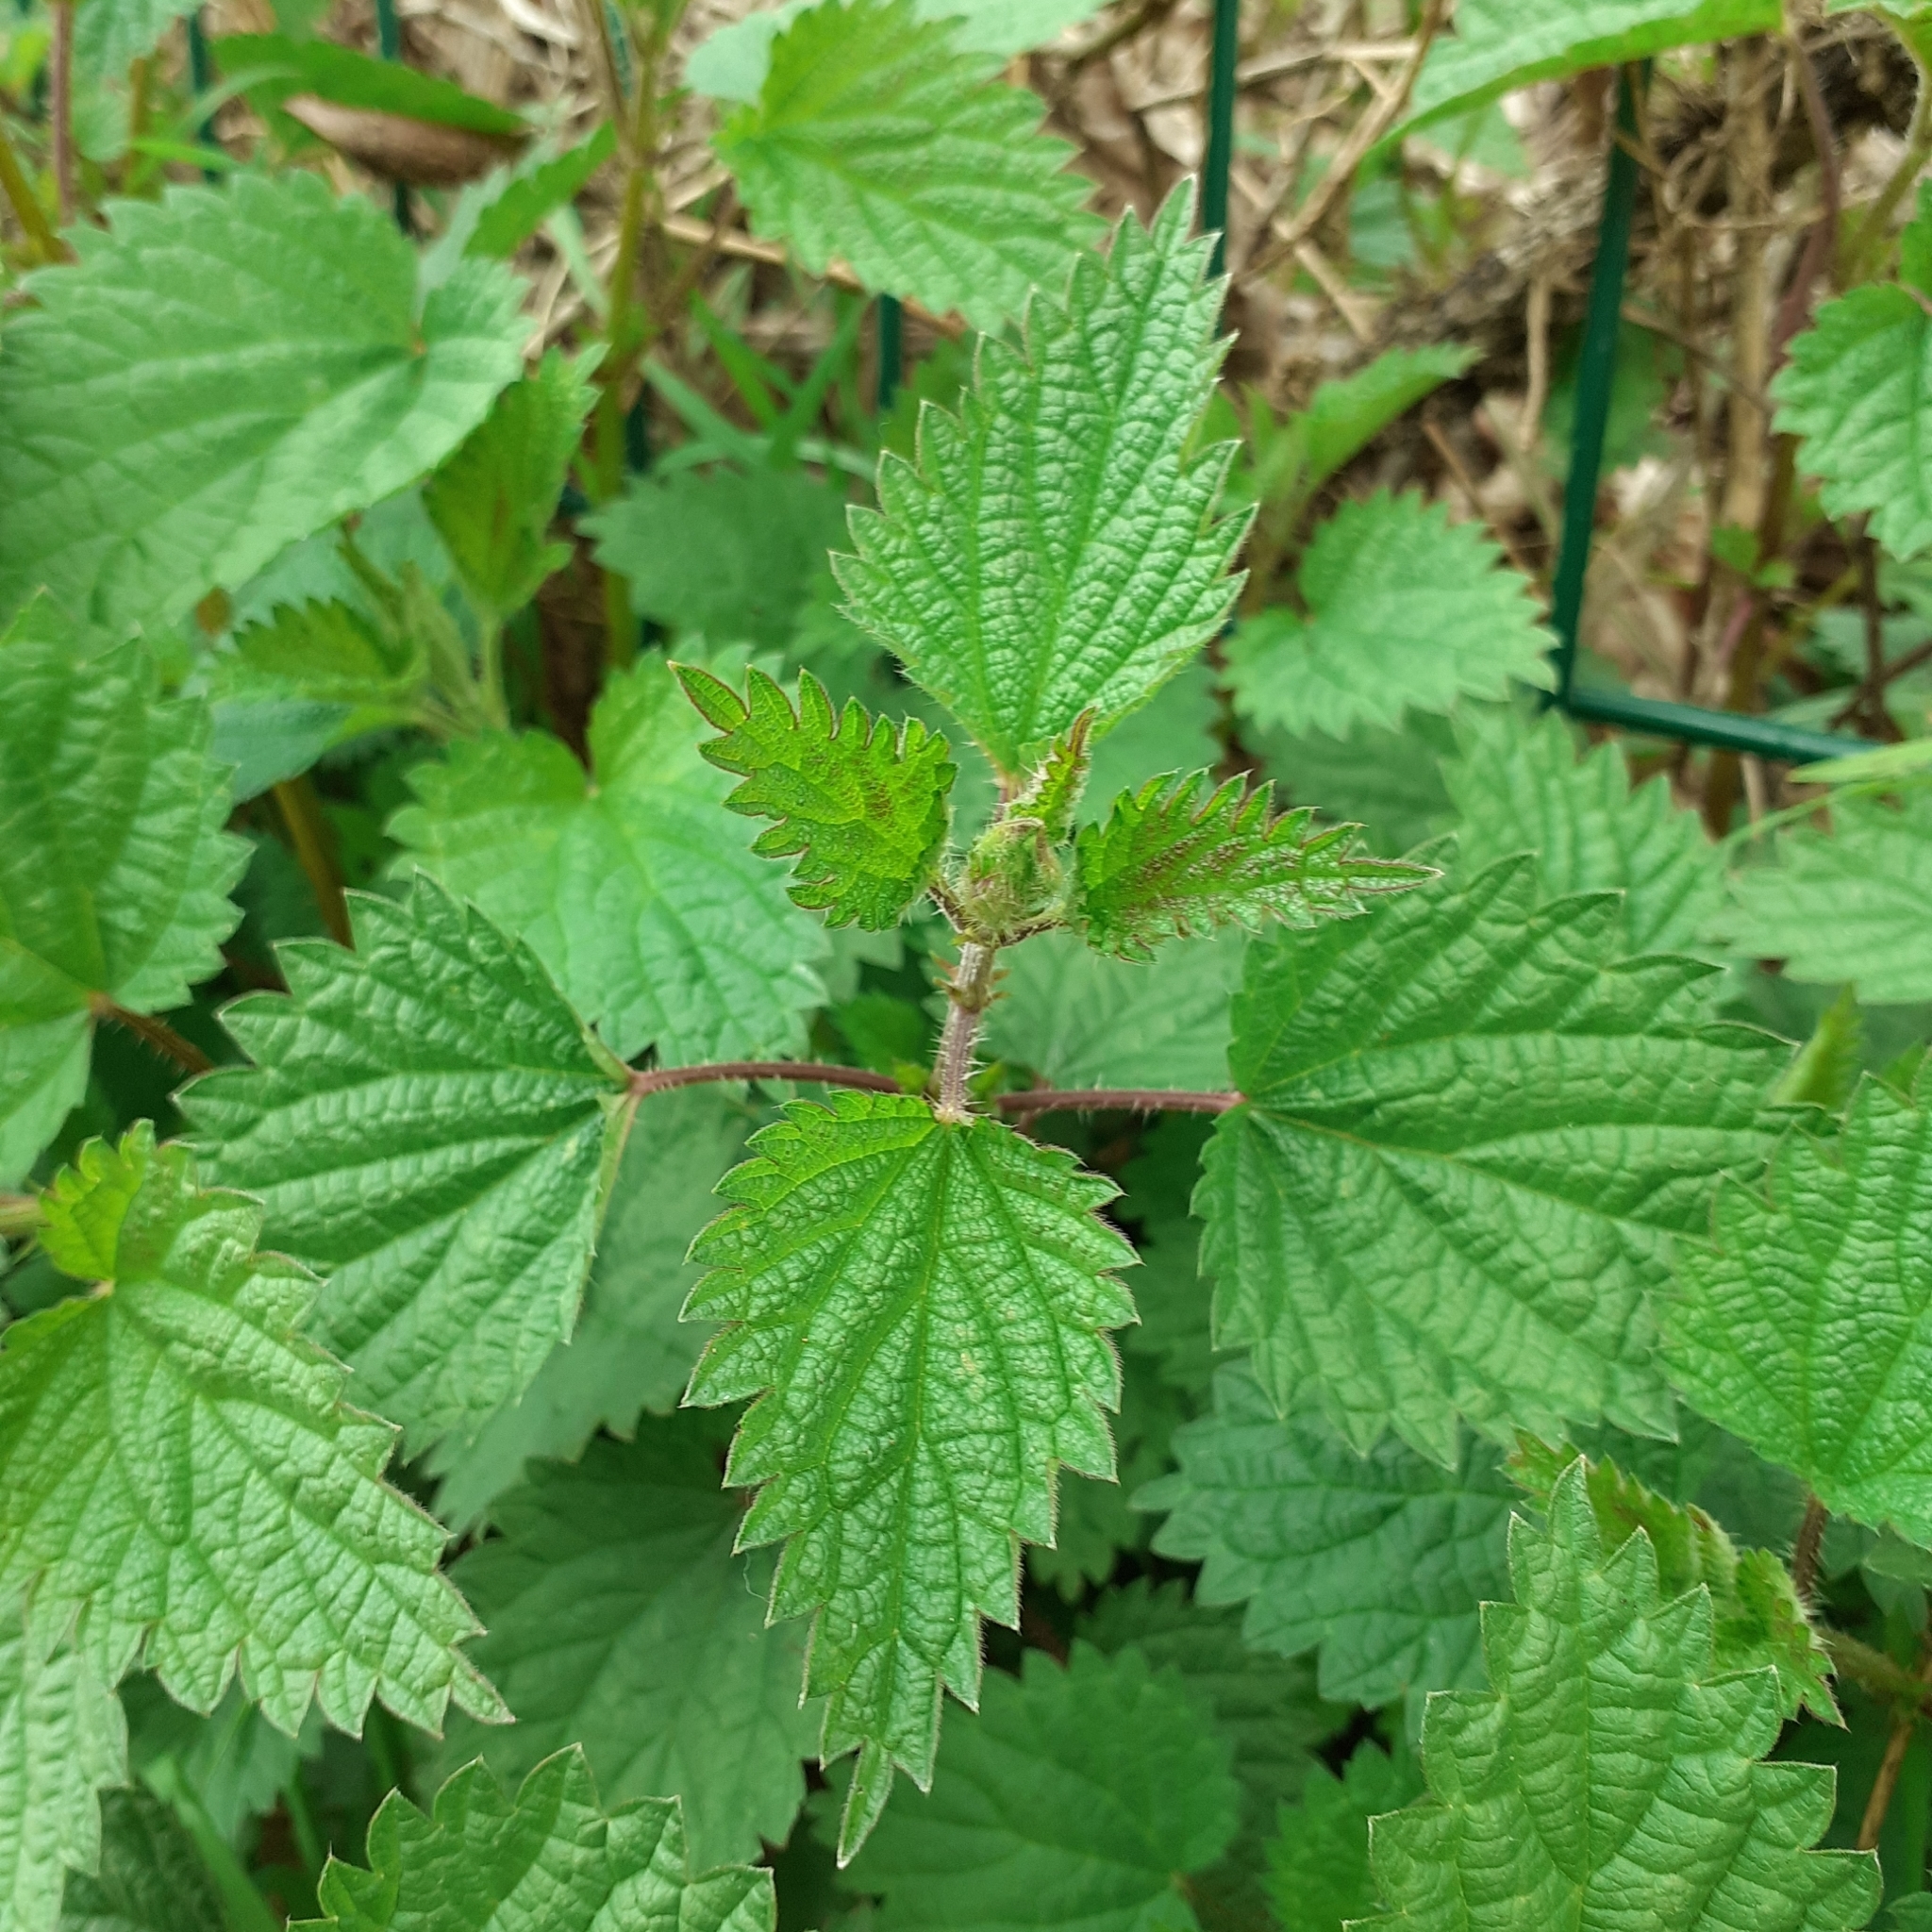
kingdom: Plantae
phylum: Tracheophyta
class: Magnoliopsida
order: Rosales
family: Urticaceae
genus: Urtica
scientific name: Urtica dioica
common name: Common nettle
